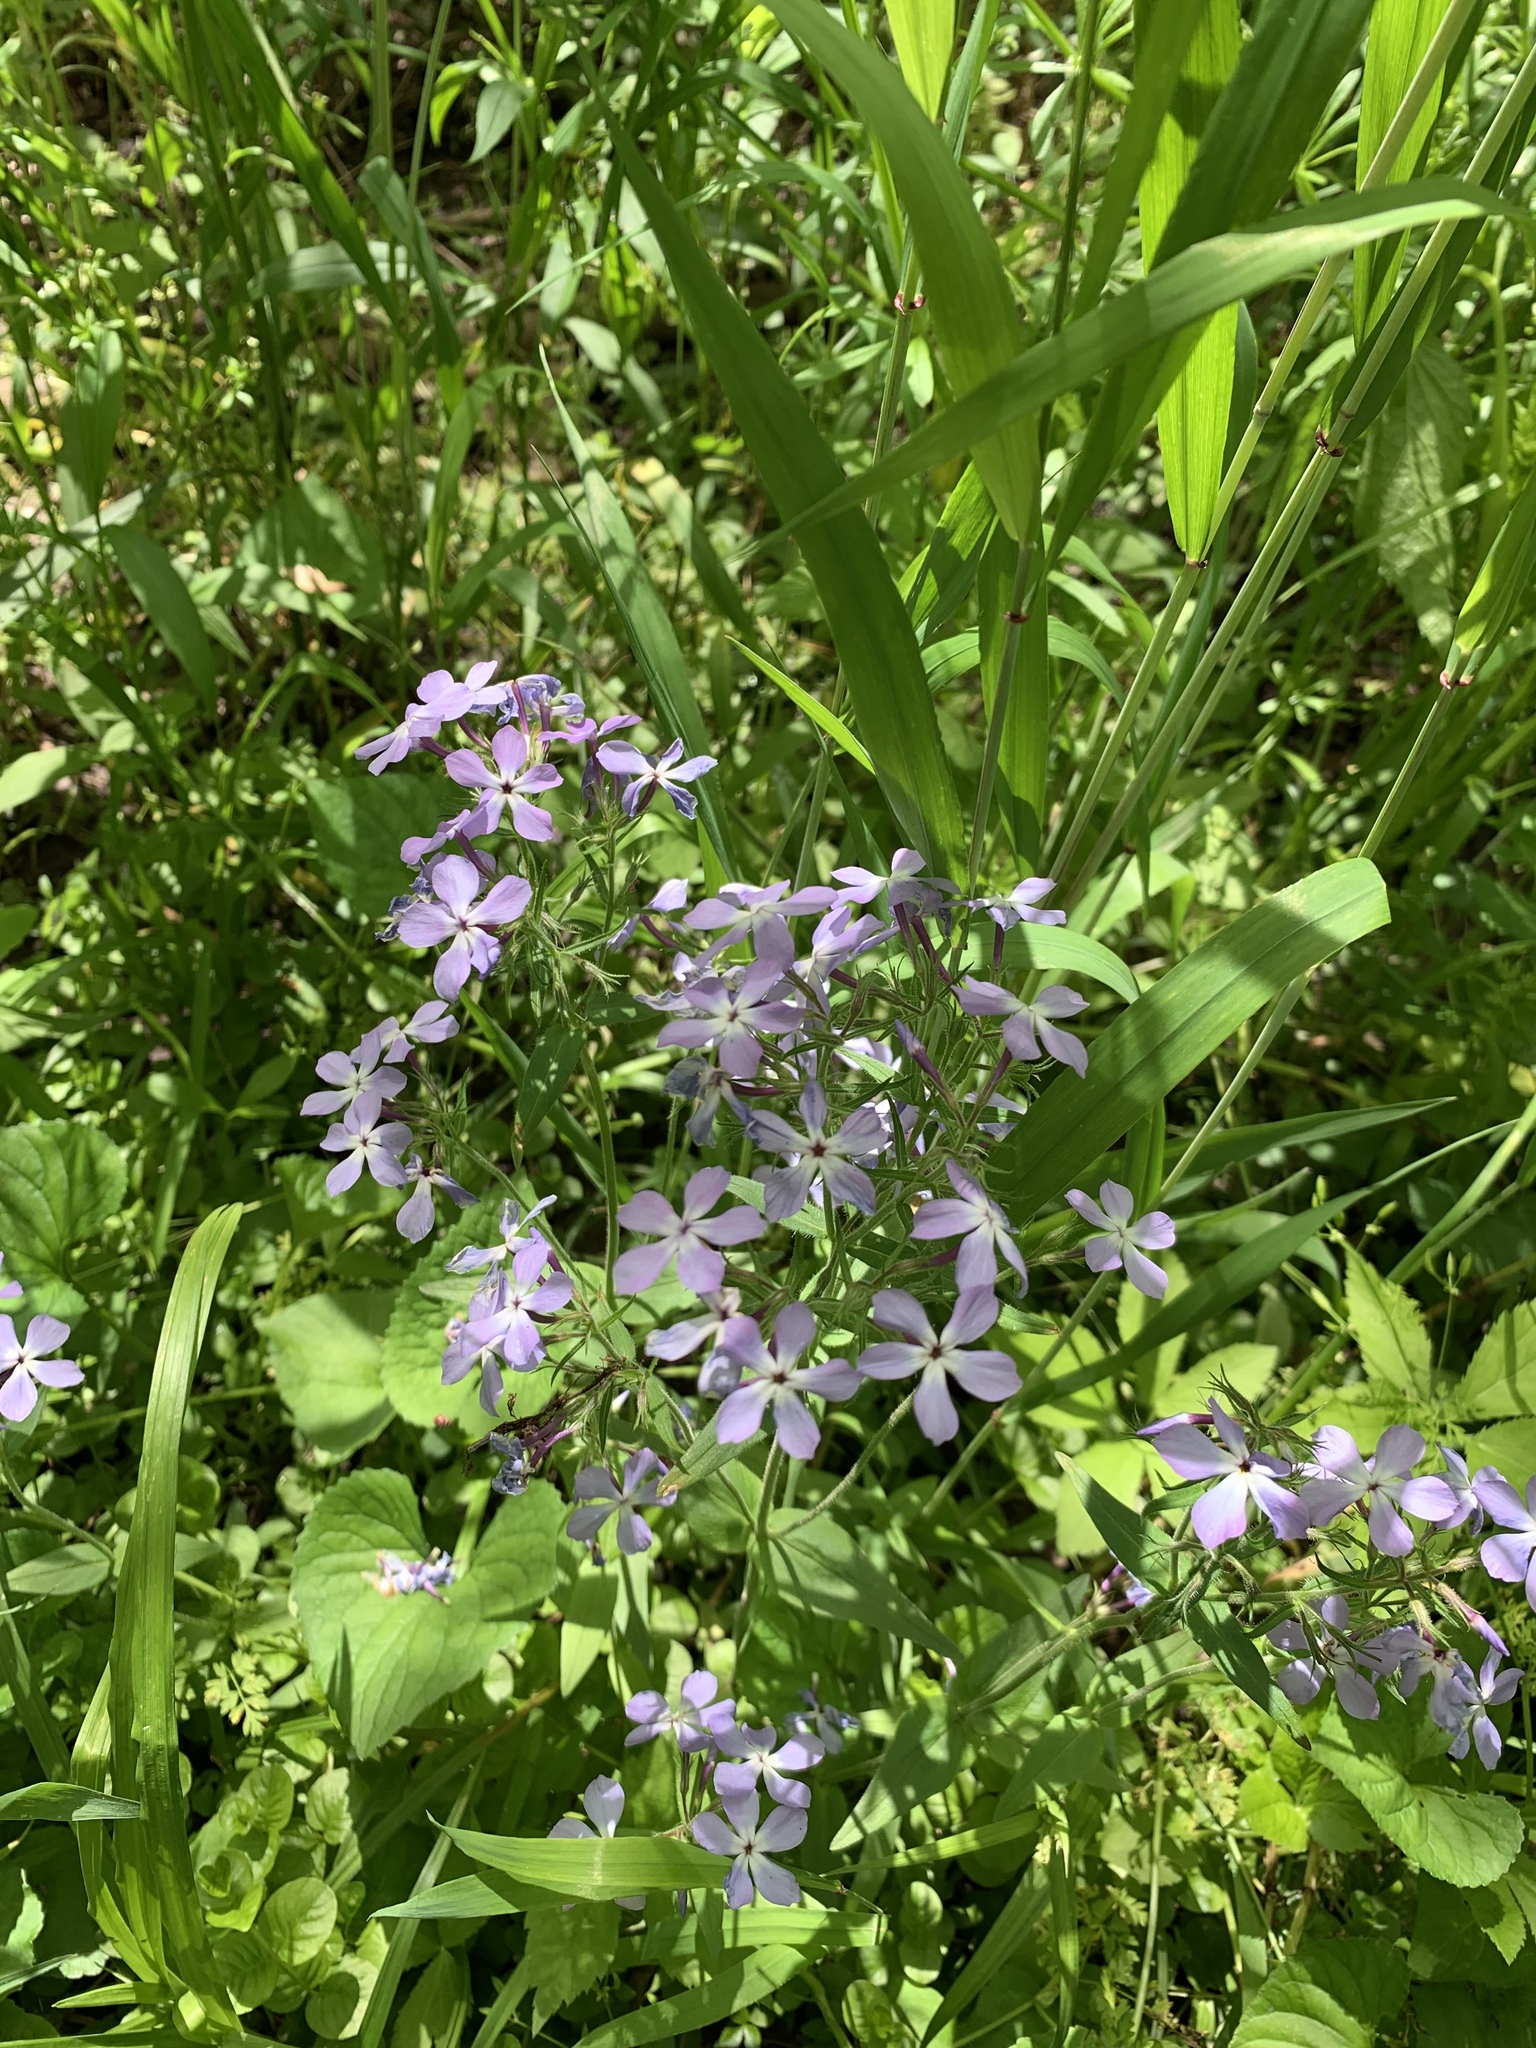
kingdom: Plantae
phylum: Tracheophyta
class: Magnoliopsida
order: Ericales
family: Polemoniaceae
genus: Phlox
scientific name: Phlox divaricata
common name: Blue phlox
